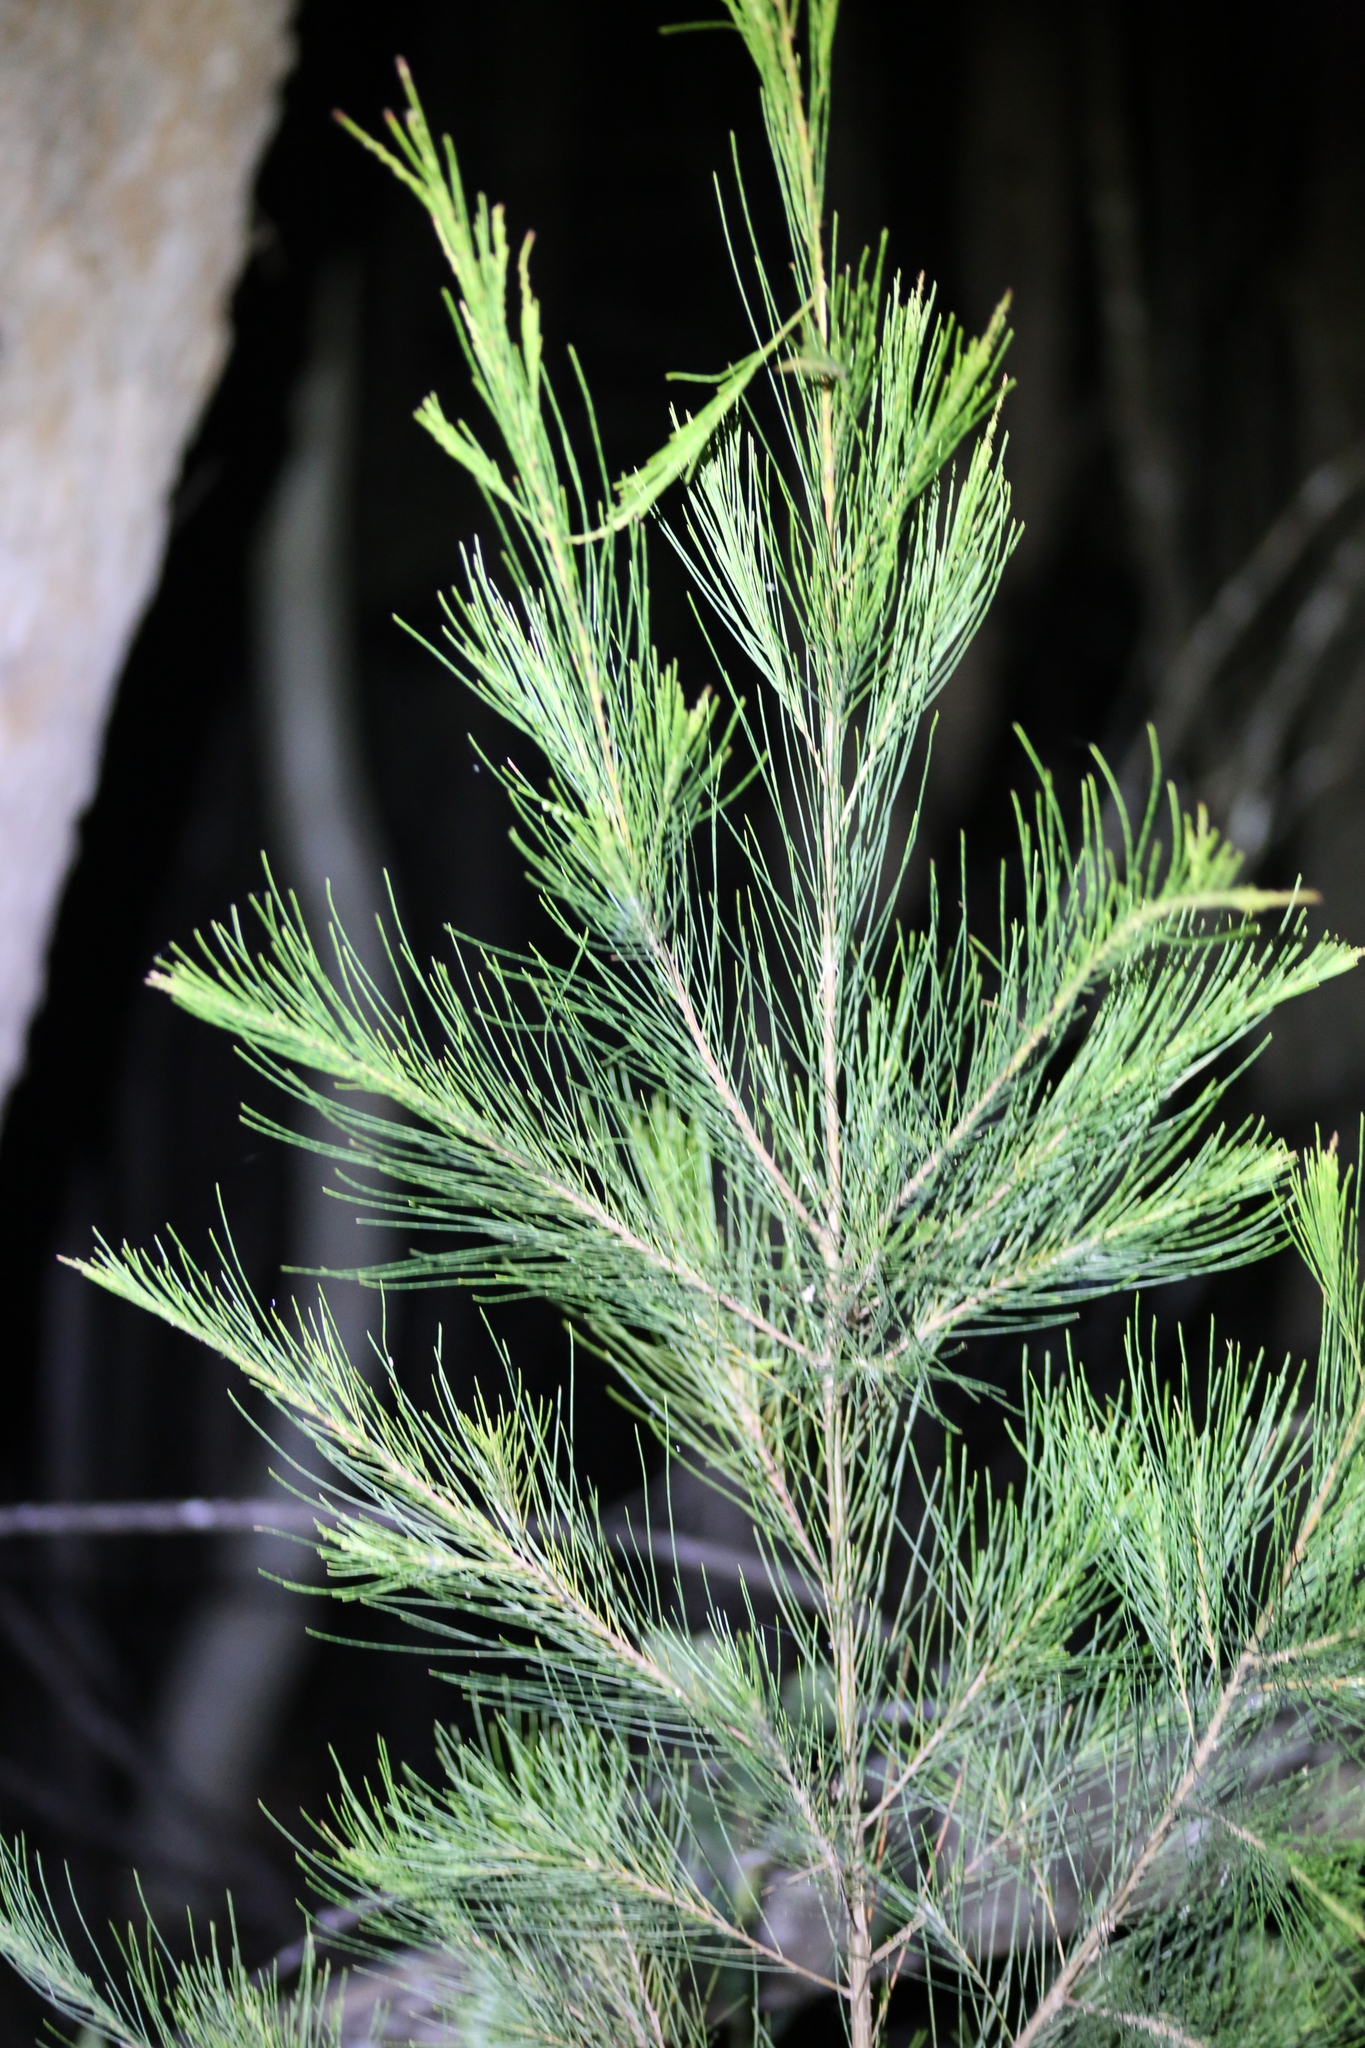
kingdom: Plantae
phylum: Tracheophyta
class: Magnoliopsida
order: Fagales
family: Casuarinaceae
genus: Allocasuarina
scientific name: Allocasuarina littoralis
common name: Black she-oak
